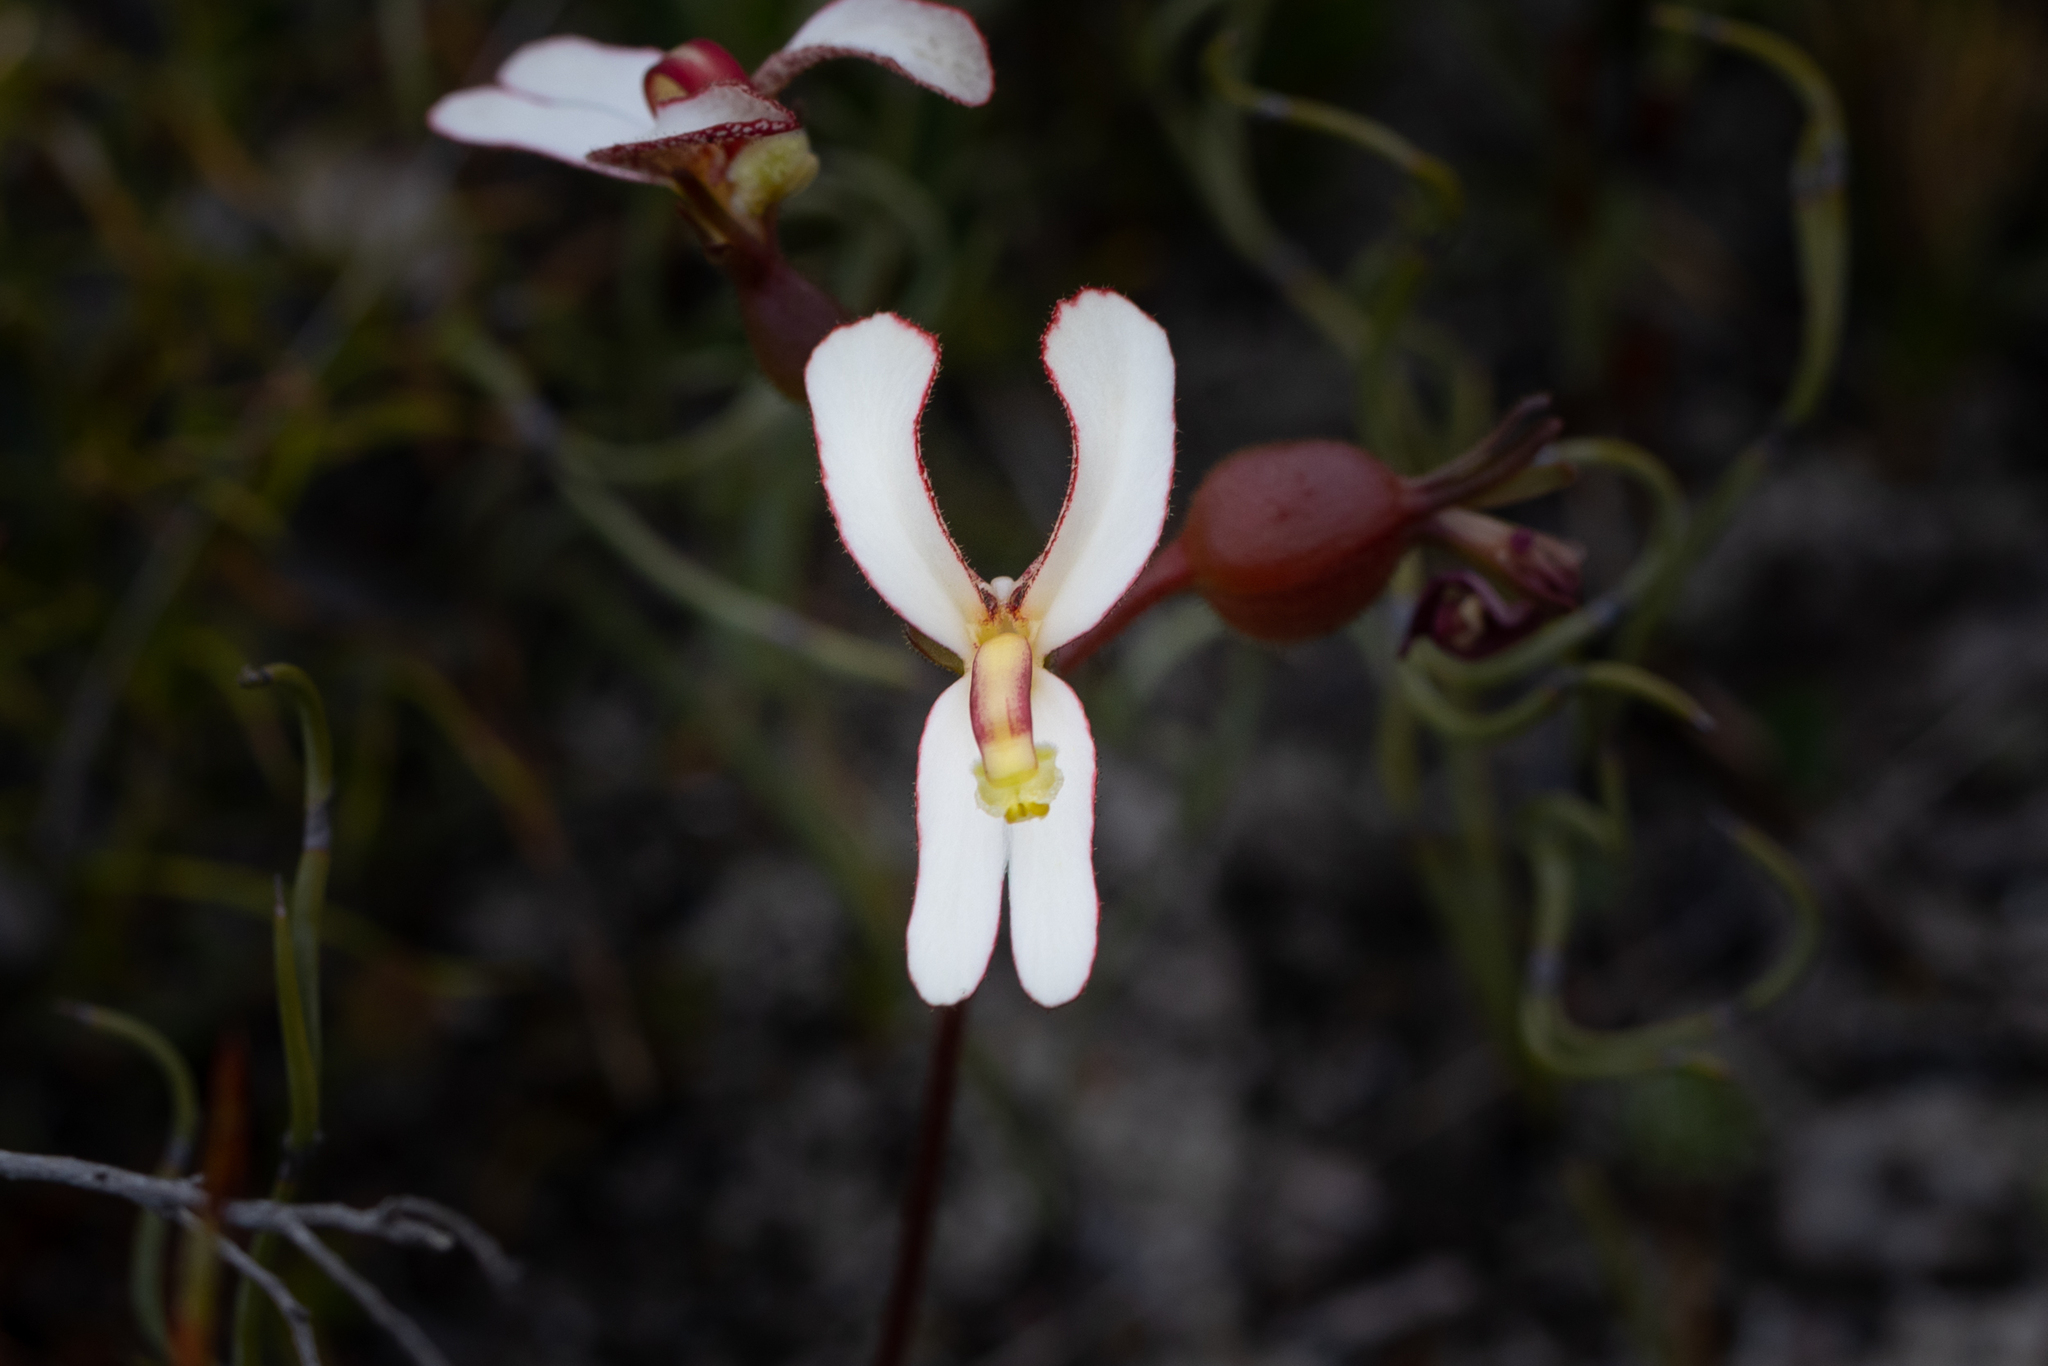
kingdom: Plantae
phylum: Tracheophyta
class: Magnoliopsida
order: Asterales
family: Stylidiaceae
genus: Stylidium
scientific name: Stylidium schoenoides
